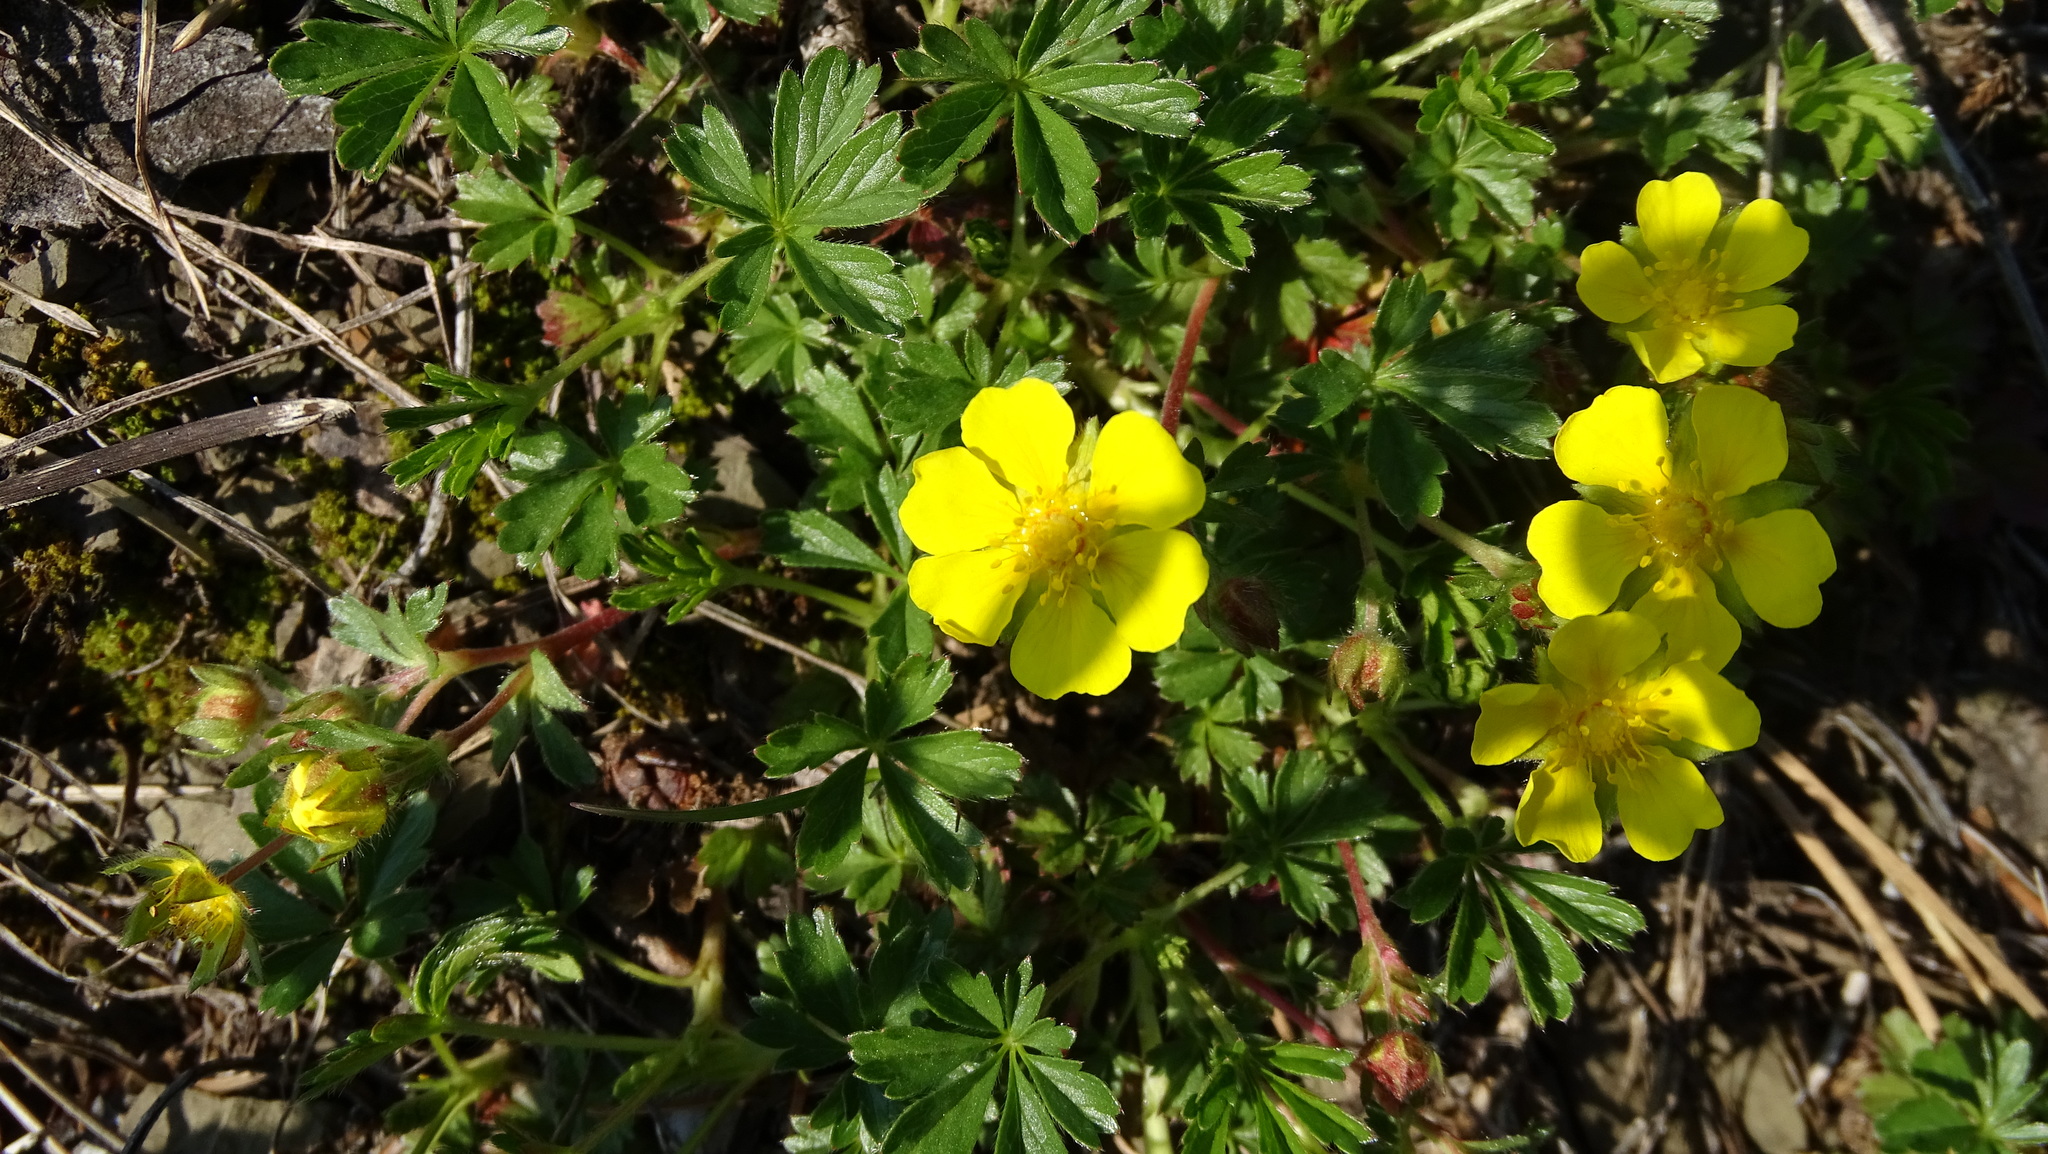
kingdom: Plantae
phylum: Tracheophyta
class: Magnoliopsida
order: Rosales
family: Rosaceae
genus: Potentilla
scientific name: Potentilla verna
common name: Spring cinquefoil
